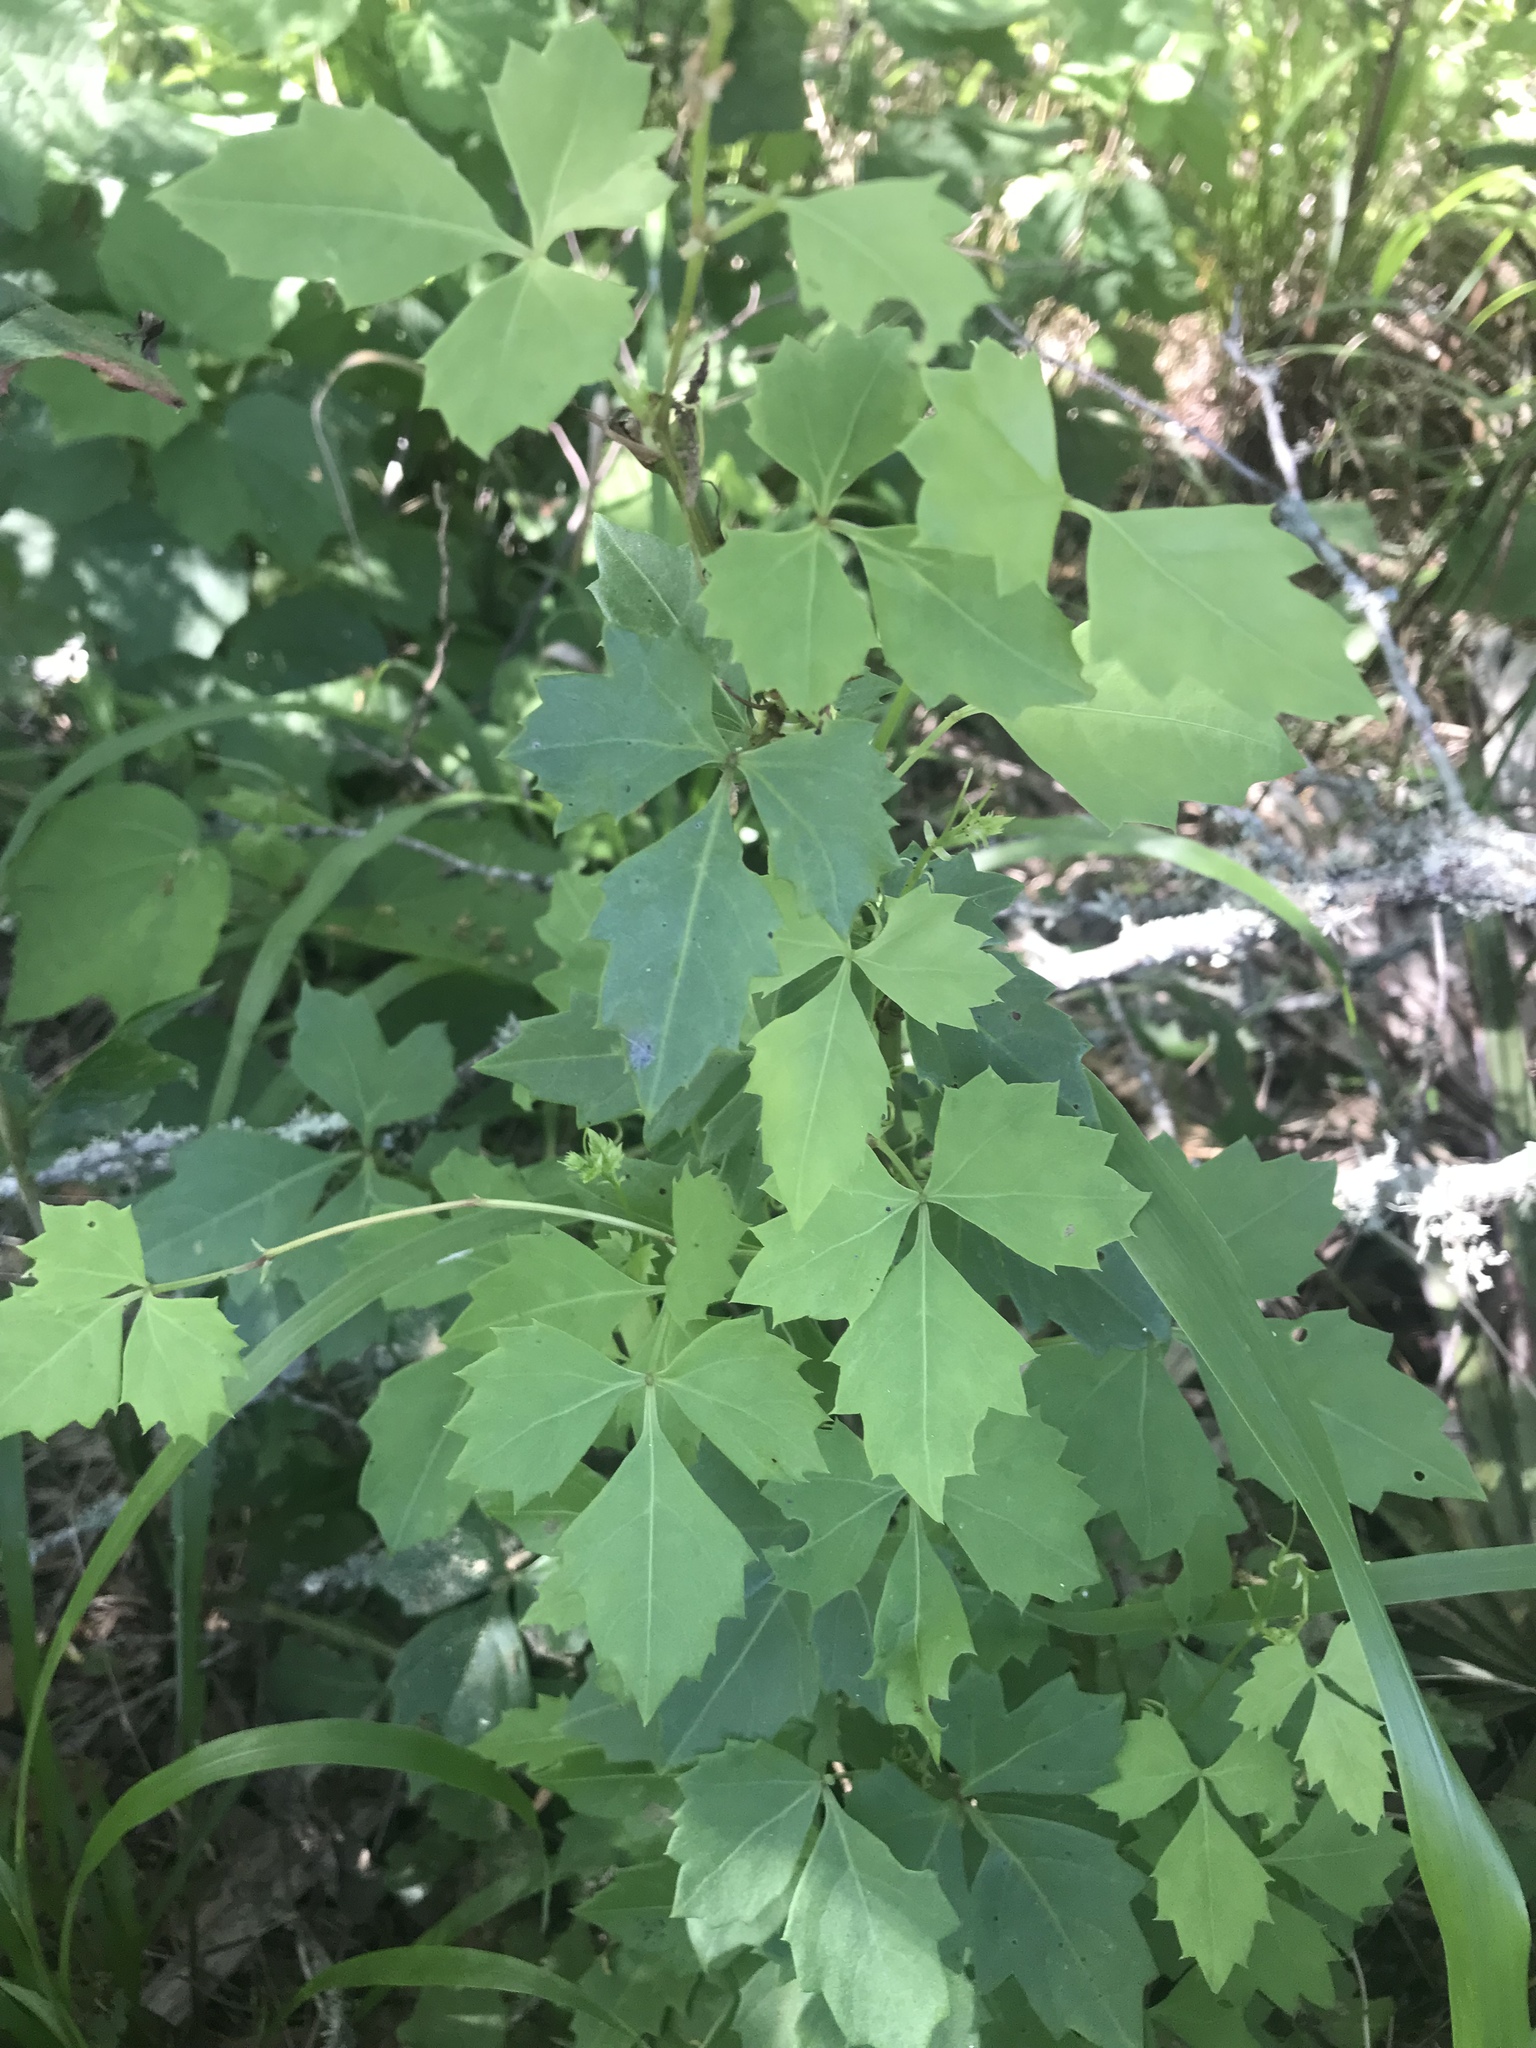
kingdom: Plantae
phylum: Tracheophyta
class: Magnoliopsida
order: Vitales
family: Vitaceae
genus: Cissus
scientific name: Cissus trifoliata
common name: Vine-sorrel
